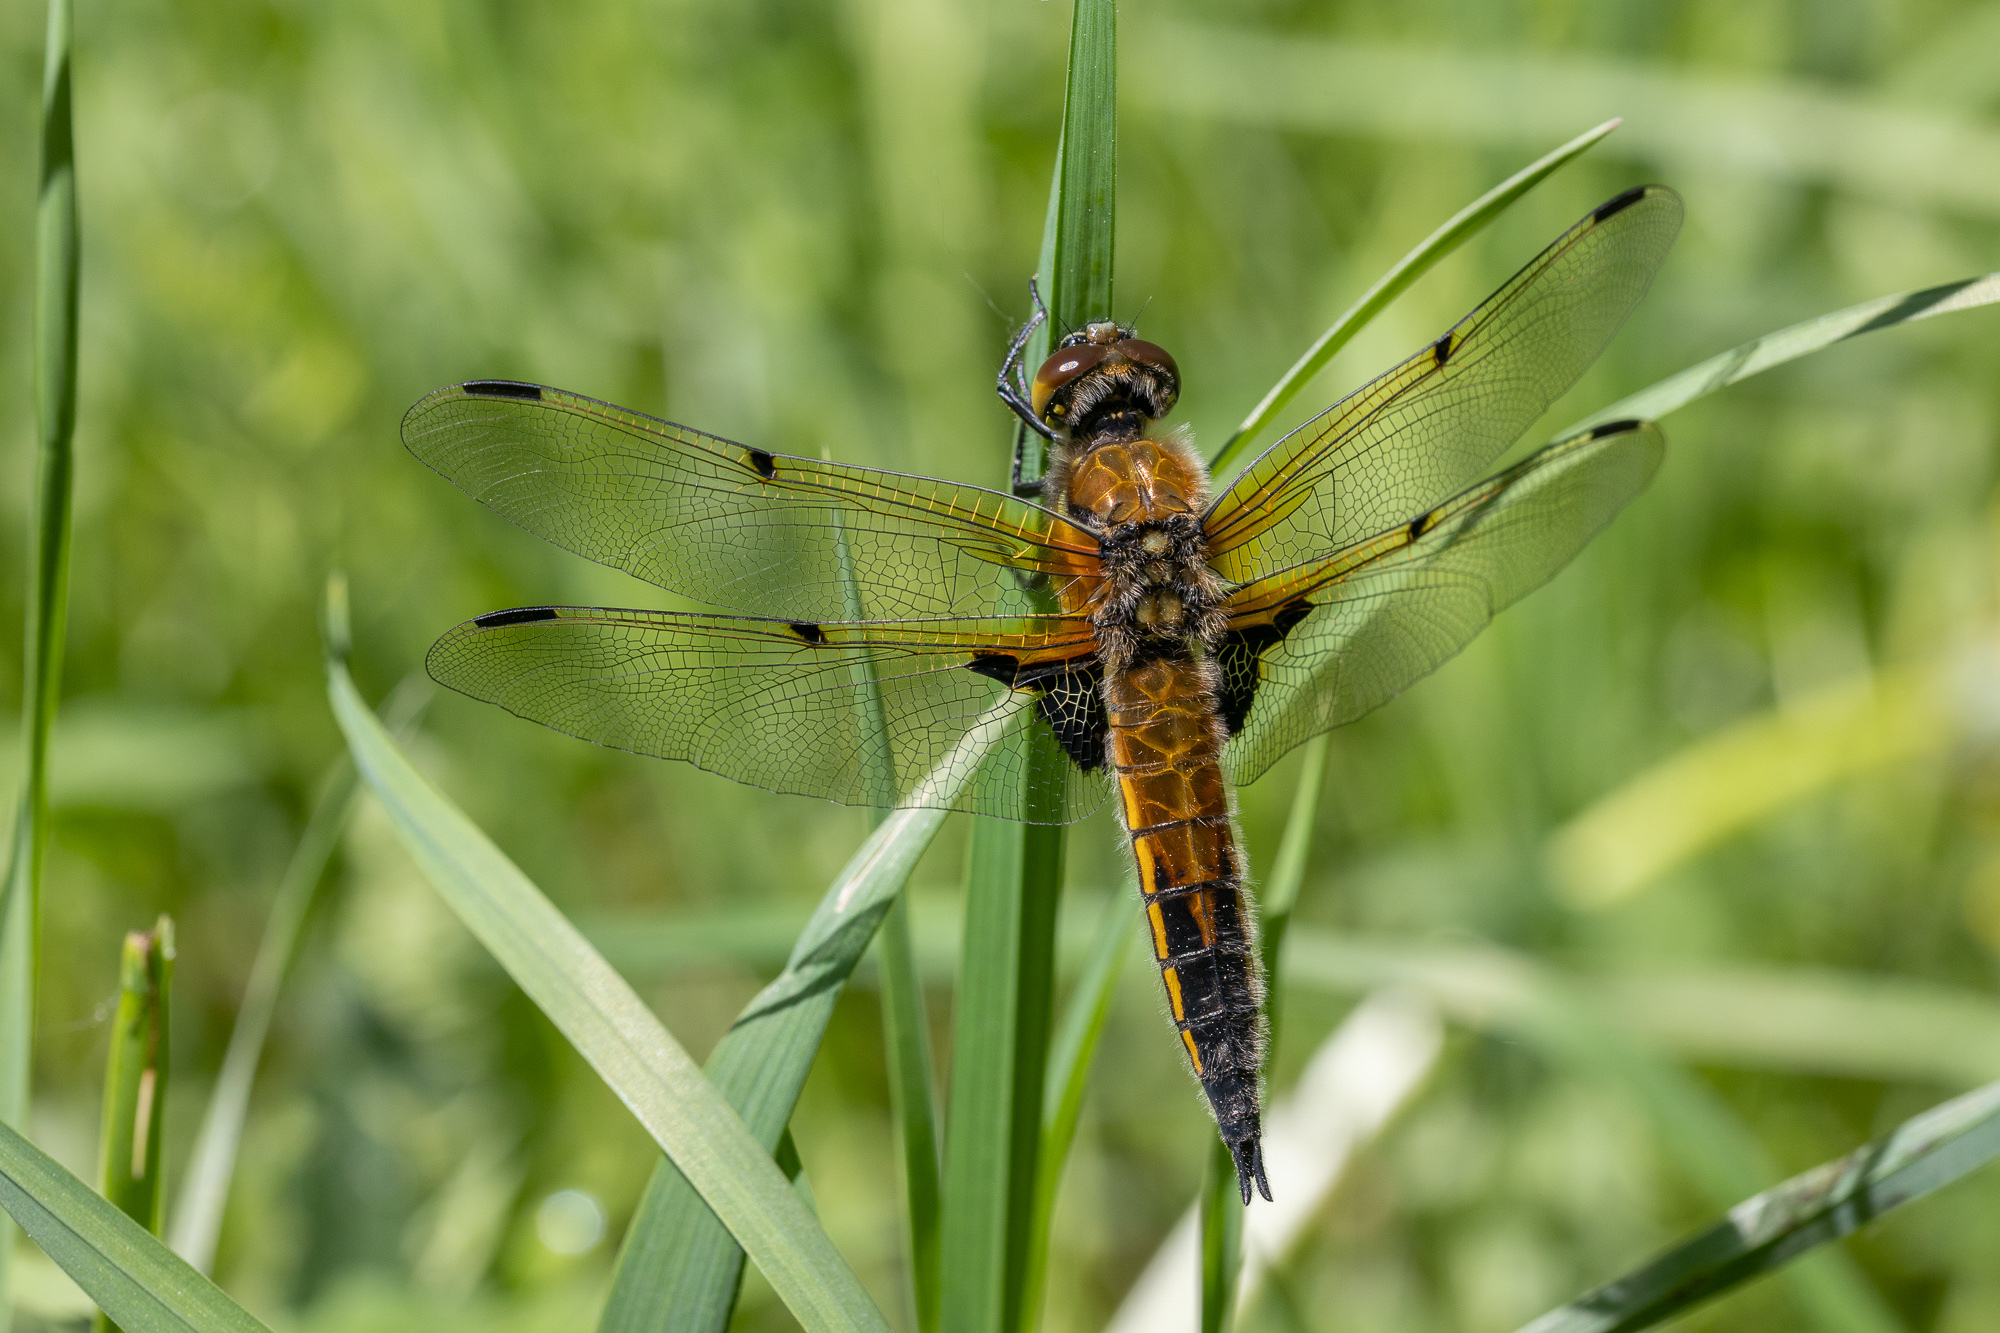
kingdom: Animalia
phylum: Arthropoda
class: Insecta
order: Odonata
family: Libellulidae
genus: Libellula
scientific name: Libellula quadrimaculata
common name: Four-spotted chaser
